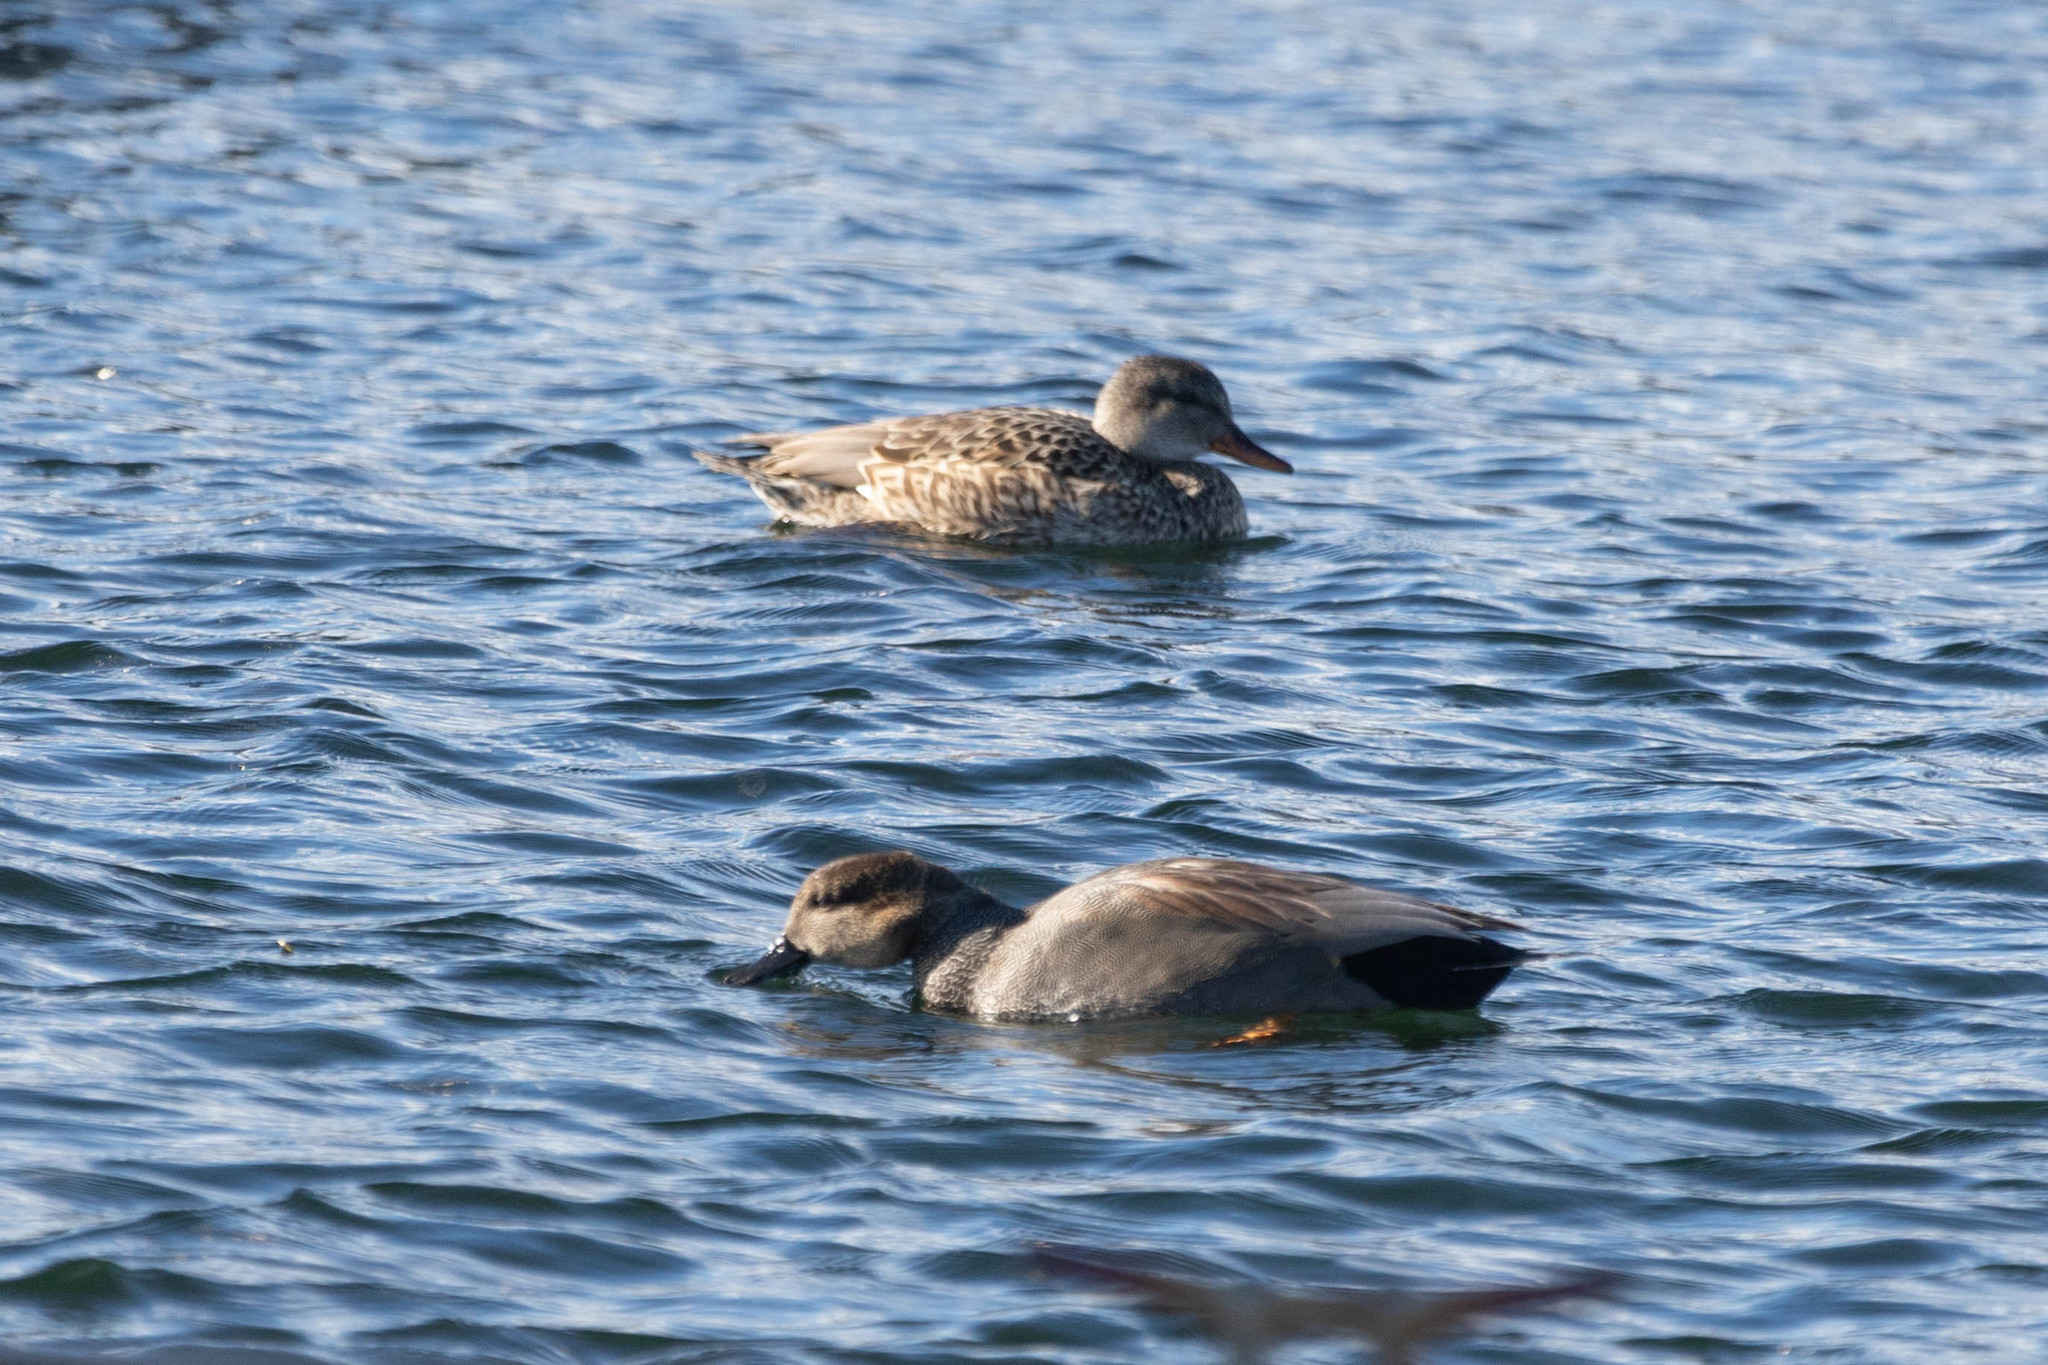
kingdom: Animalia
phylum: Chordata
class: Aves
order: Anseriformes
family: Anatidae
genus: Mareca
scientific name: Mareca strepera
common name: Gadwall
